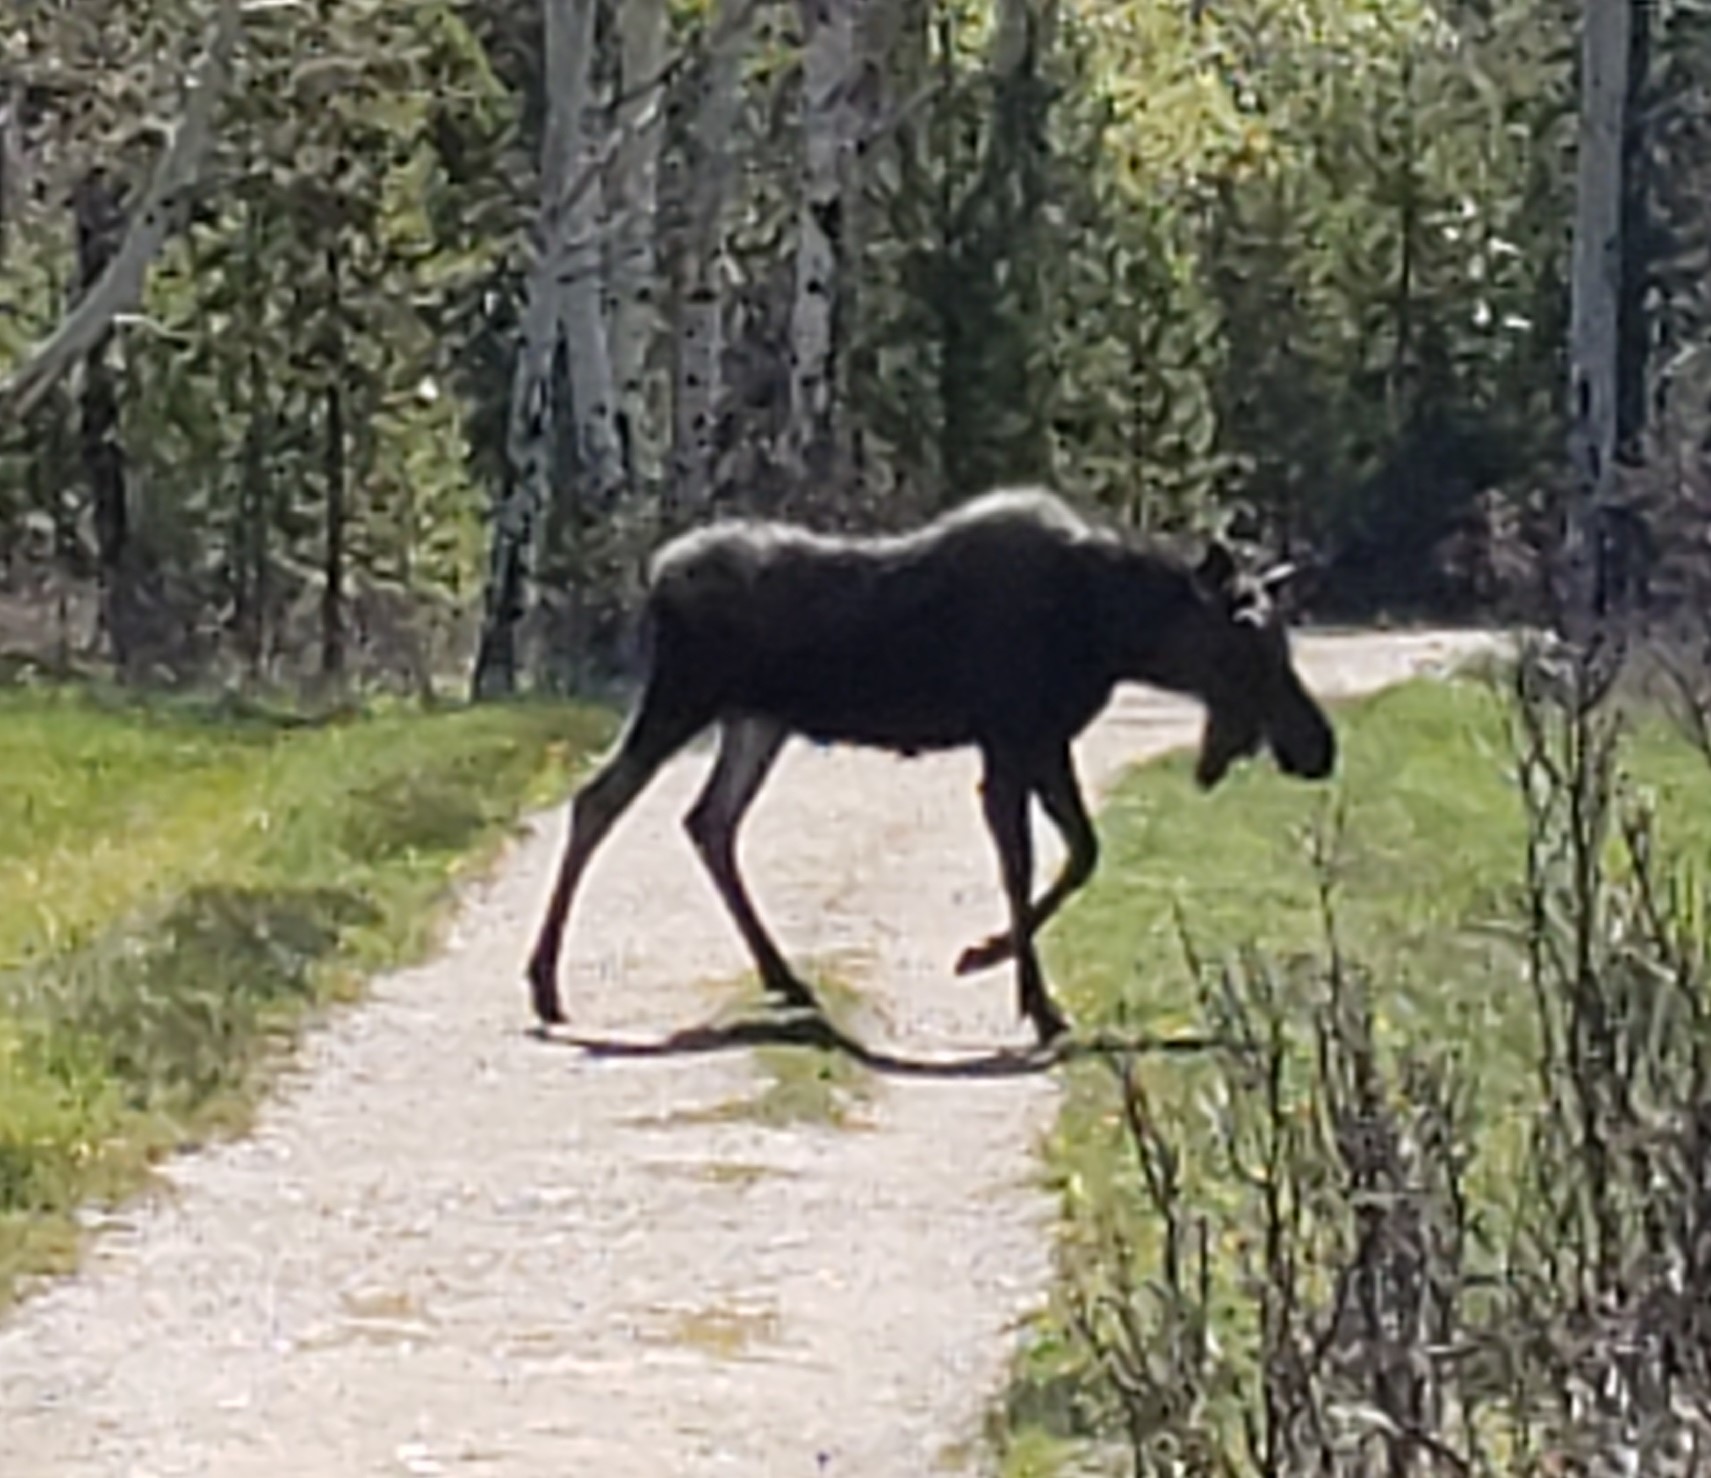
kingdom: Animalia
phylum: Chordata
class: Mammalia
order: Artiodactyla
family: Cervidae
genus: Alces
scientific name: Alces alces
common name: Moose
